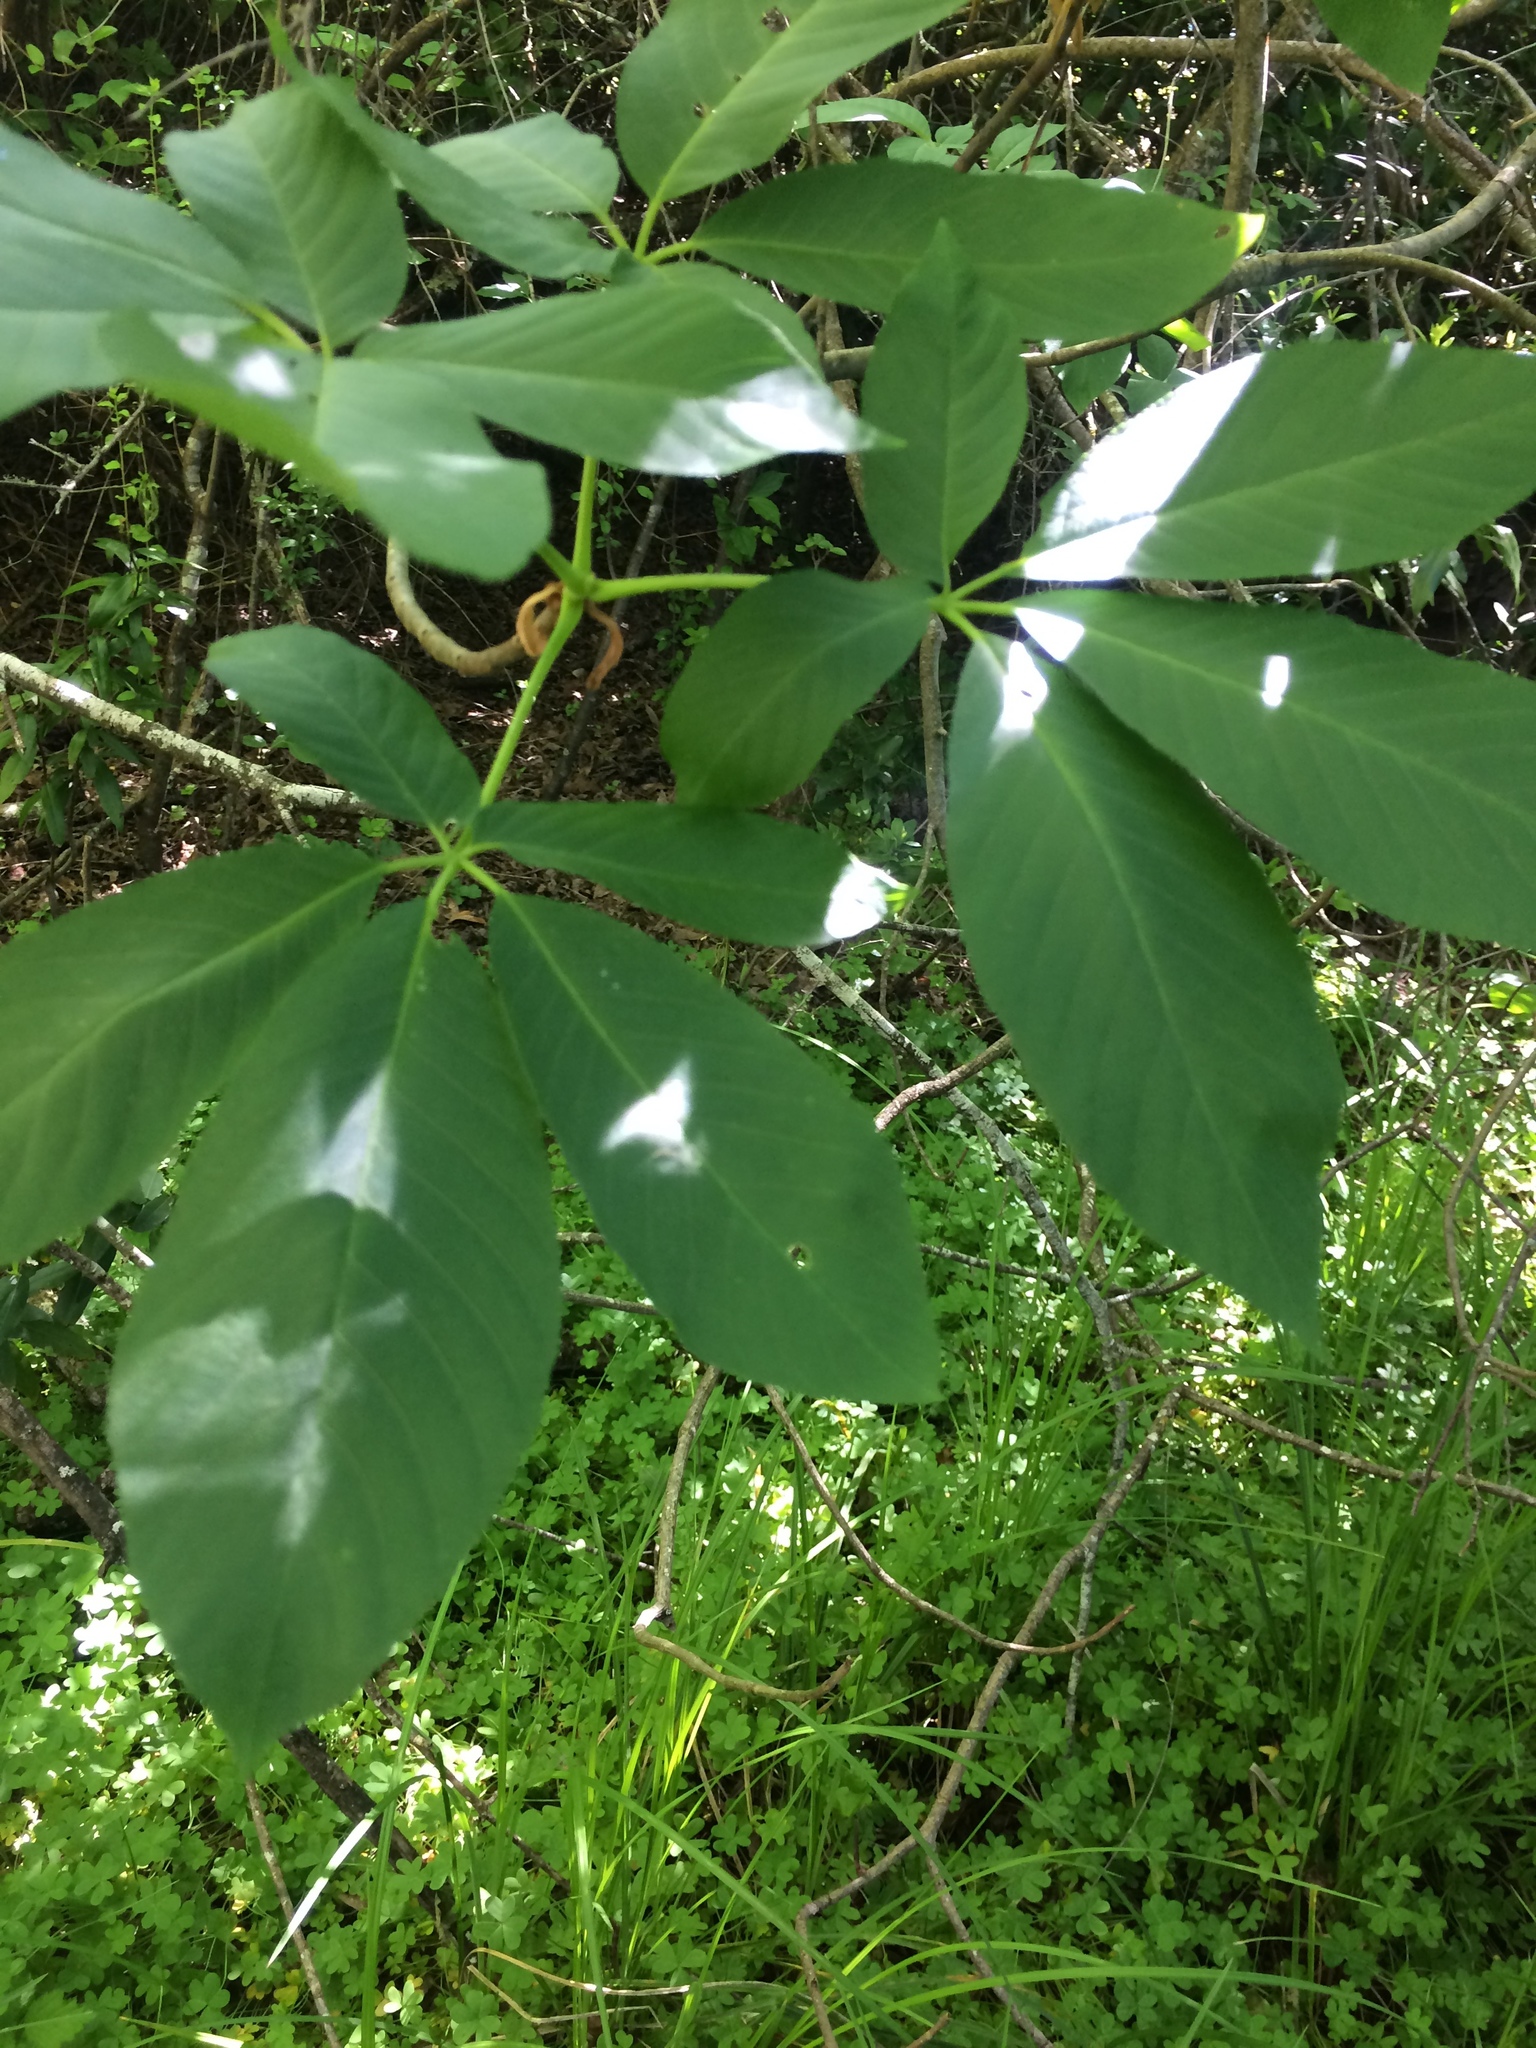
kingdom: Plantae
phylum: Tracheophyta
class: Magnoliopsida
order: Sapindales
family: Sapindaceae
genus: Aesculus
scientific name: Aesculus californica
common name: California buckeye
